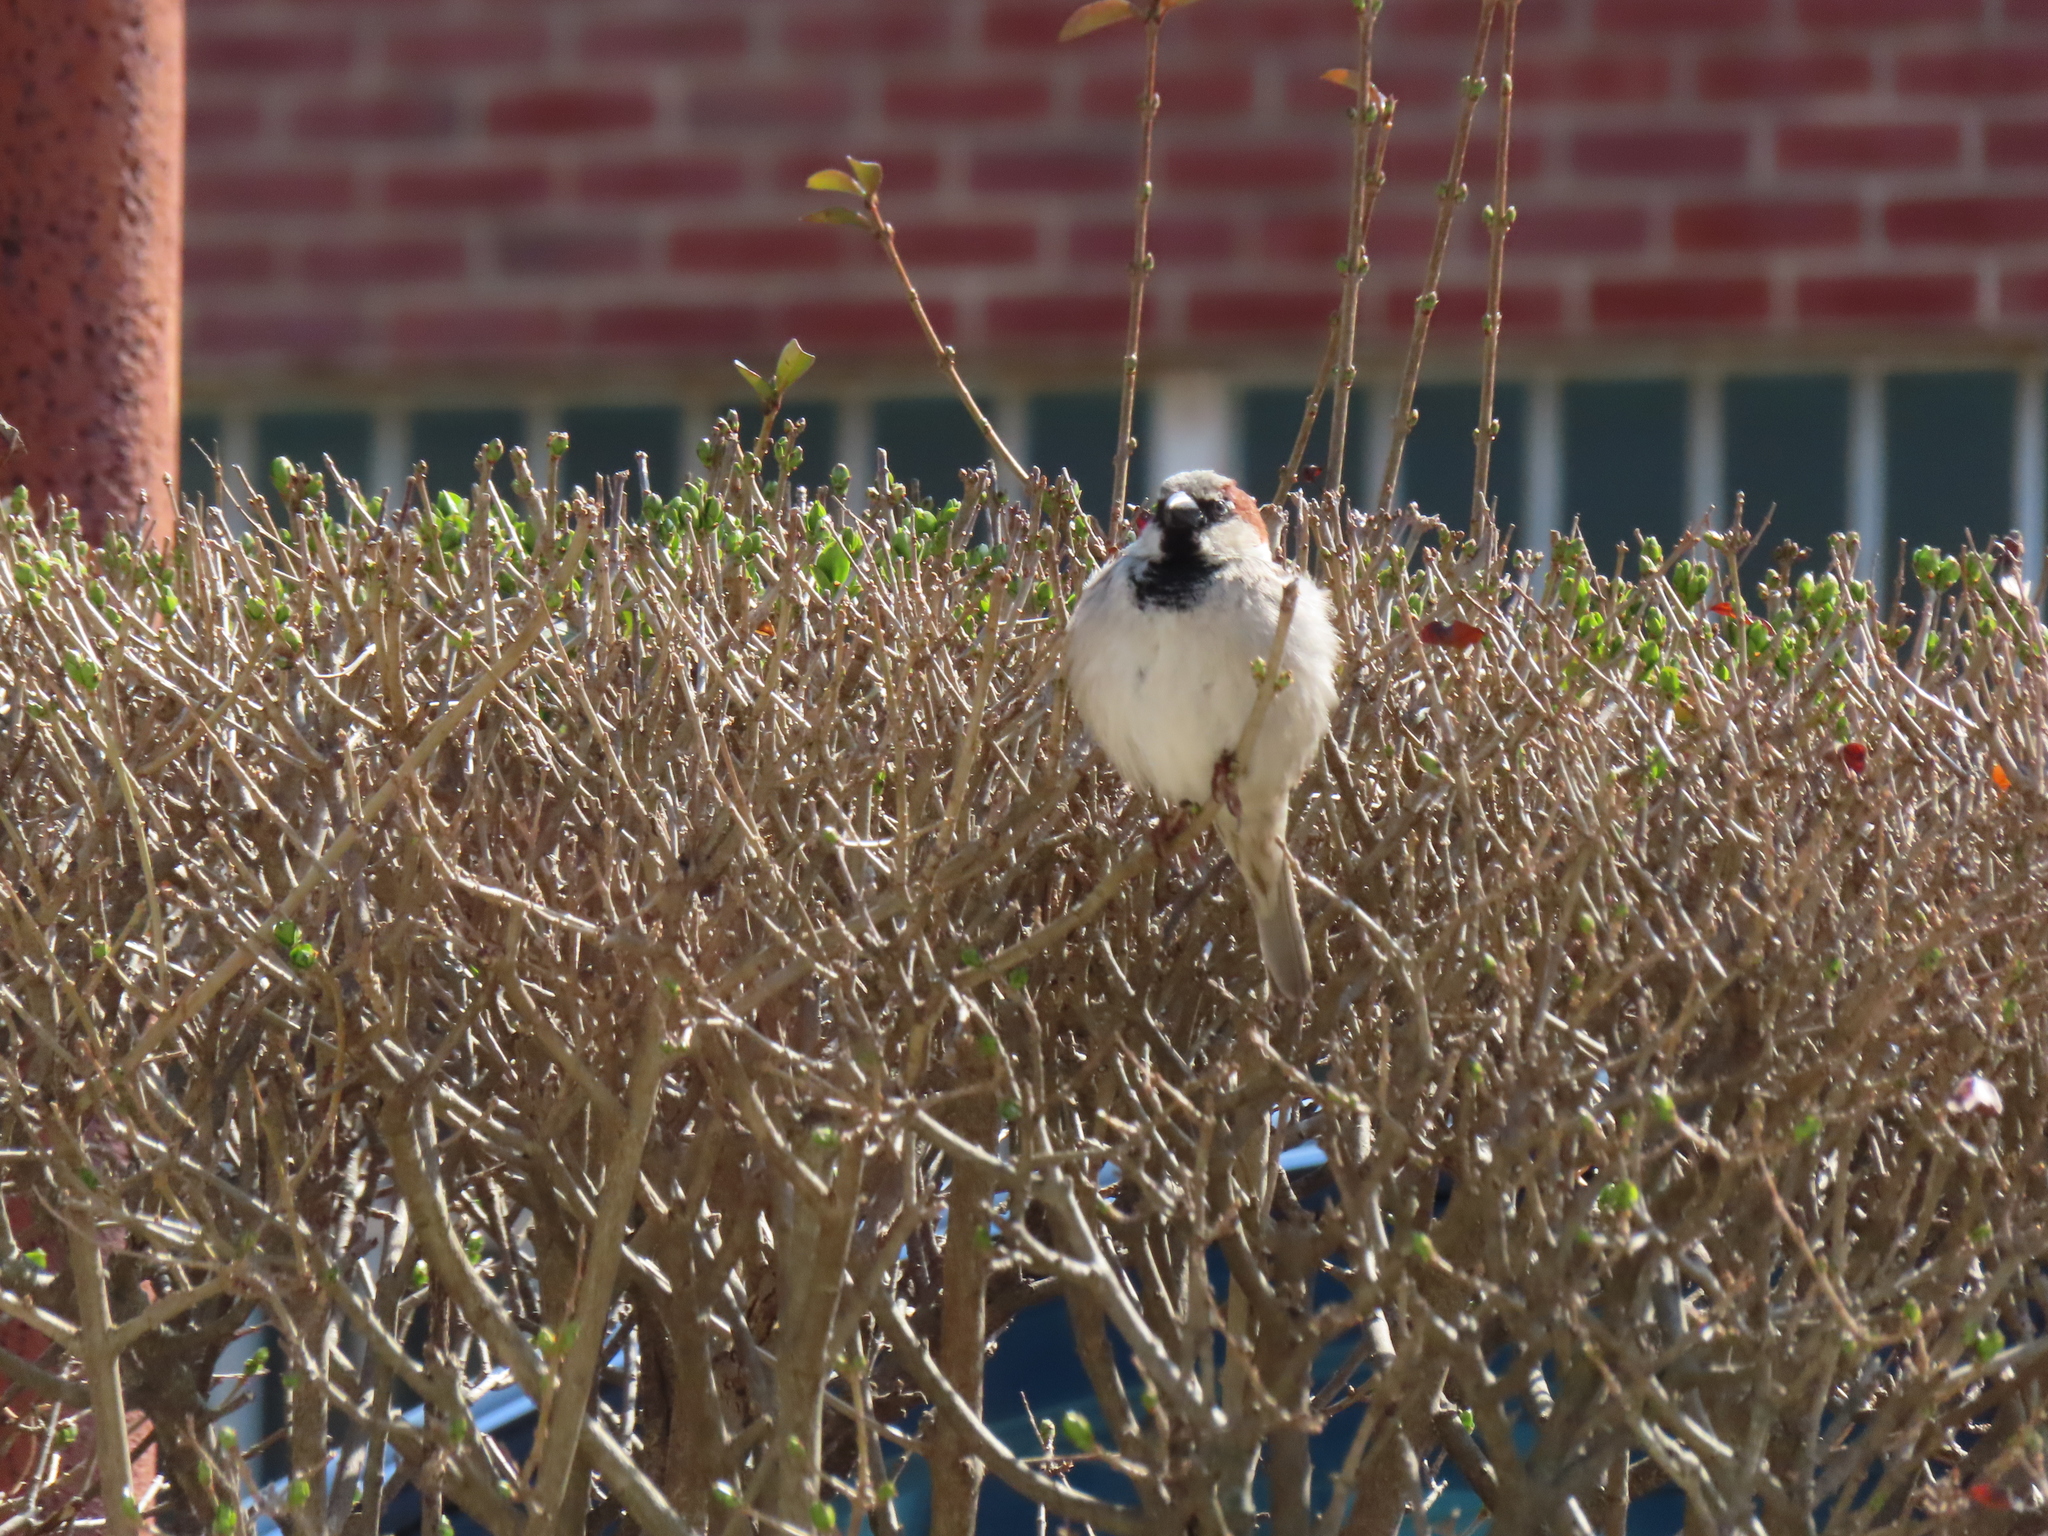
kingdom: Animalia
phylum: Chordata
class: Aves
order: Passeriformes
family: Passeridae
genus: Passer
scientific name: Passer domesticus
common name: House sparrow
